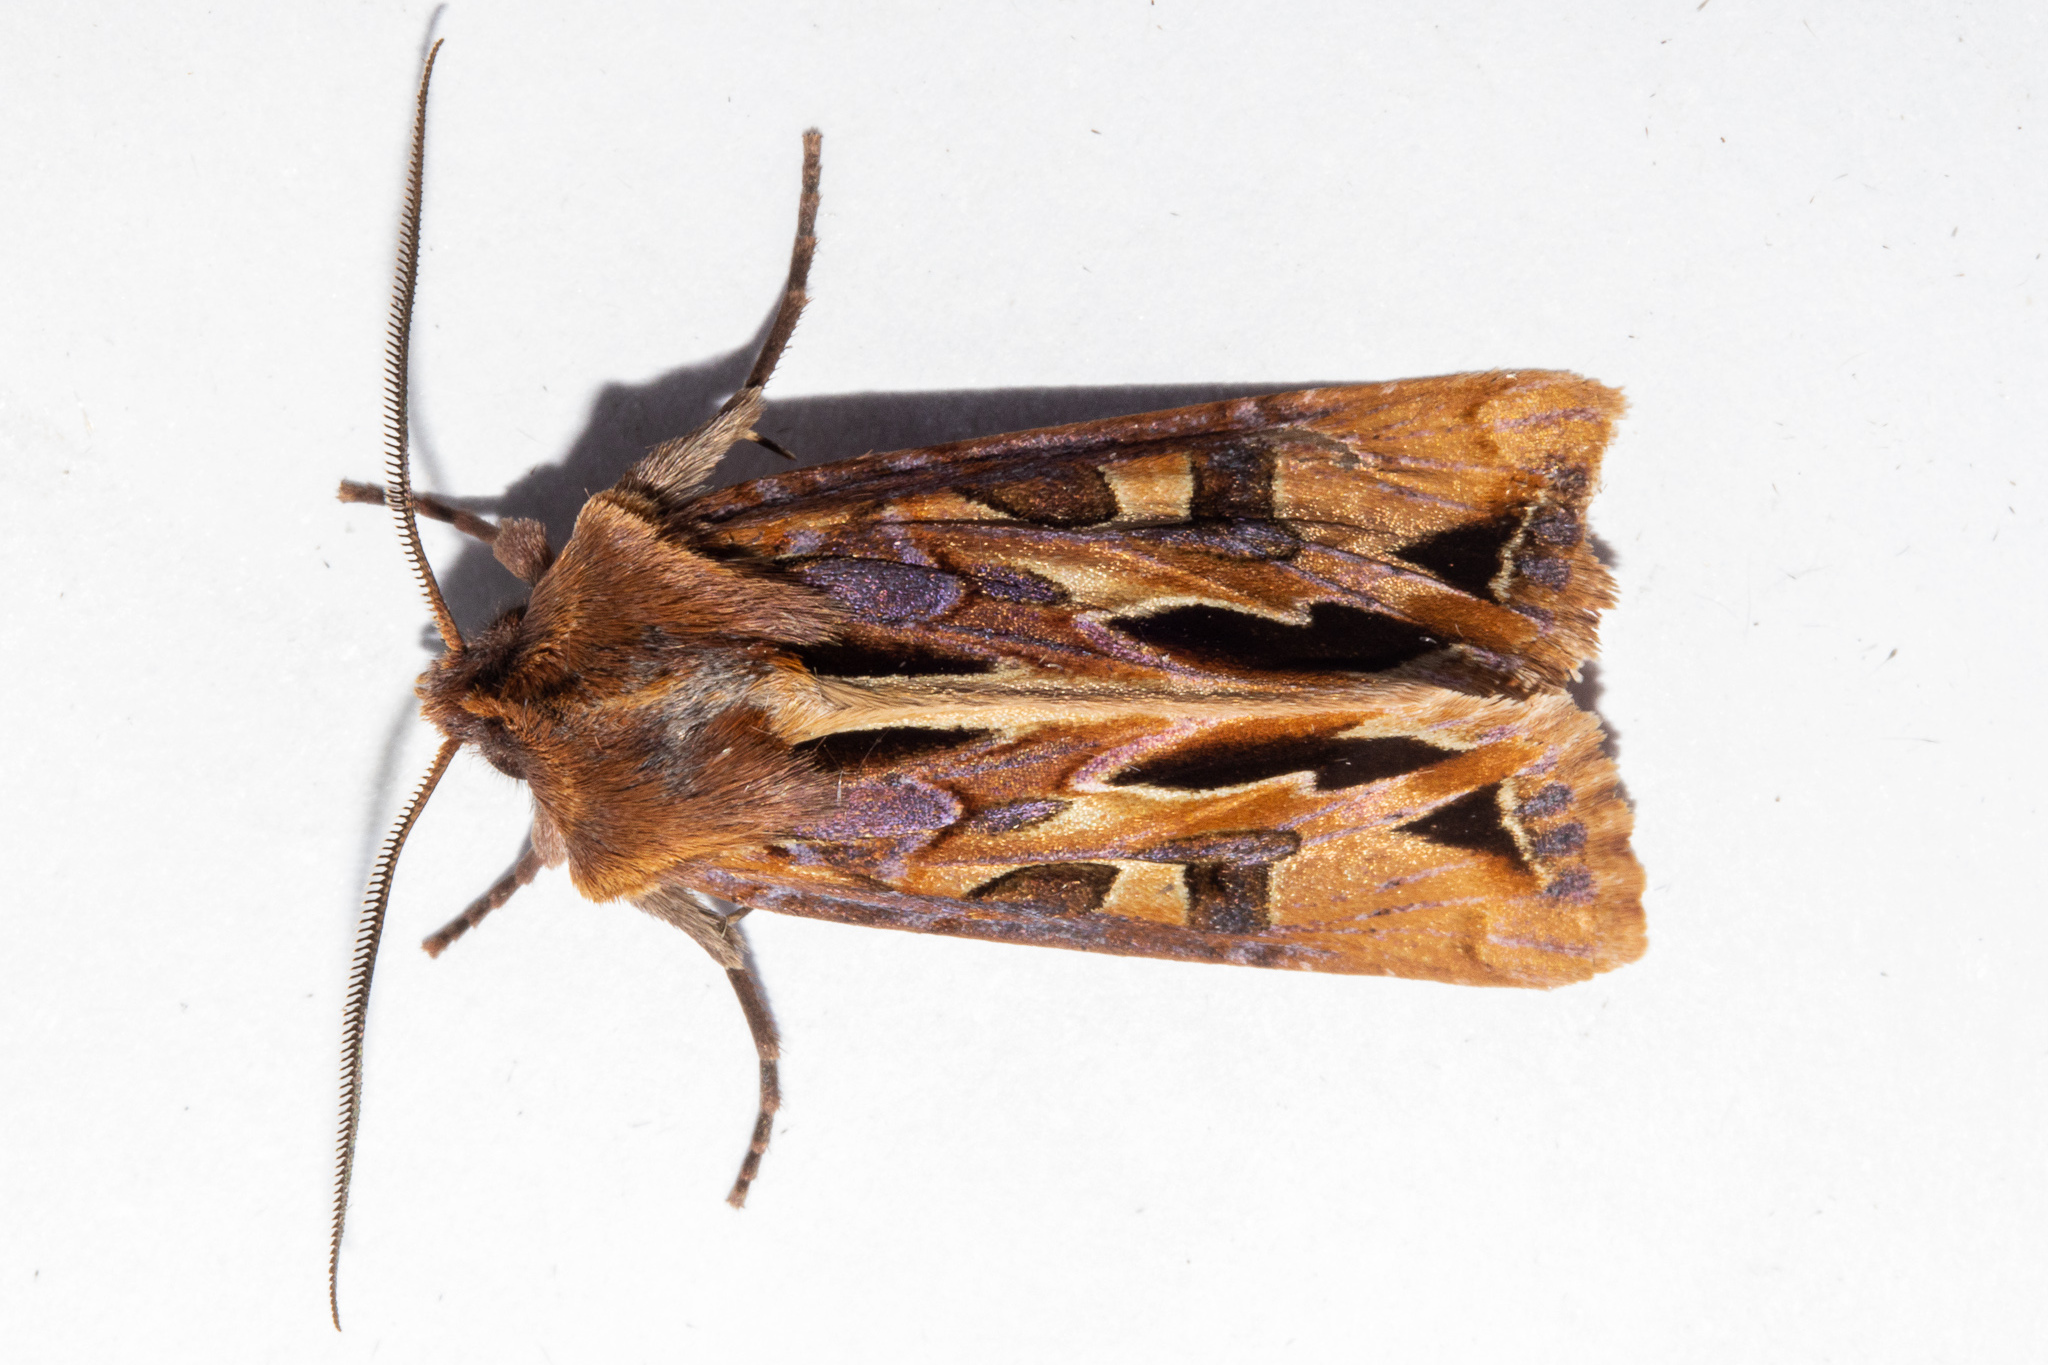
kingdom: Animalia
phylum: Arthropoda
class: Insecta
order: Lepidoptera
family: Noctuidae
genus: Ichneutica
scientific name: Ichneutica
